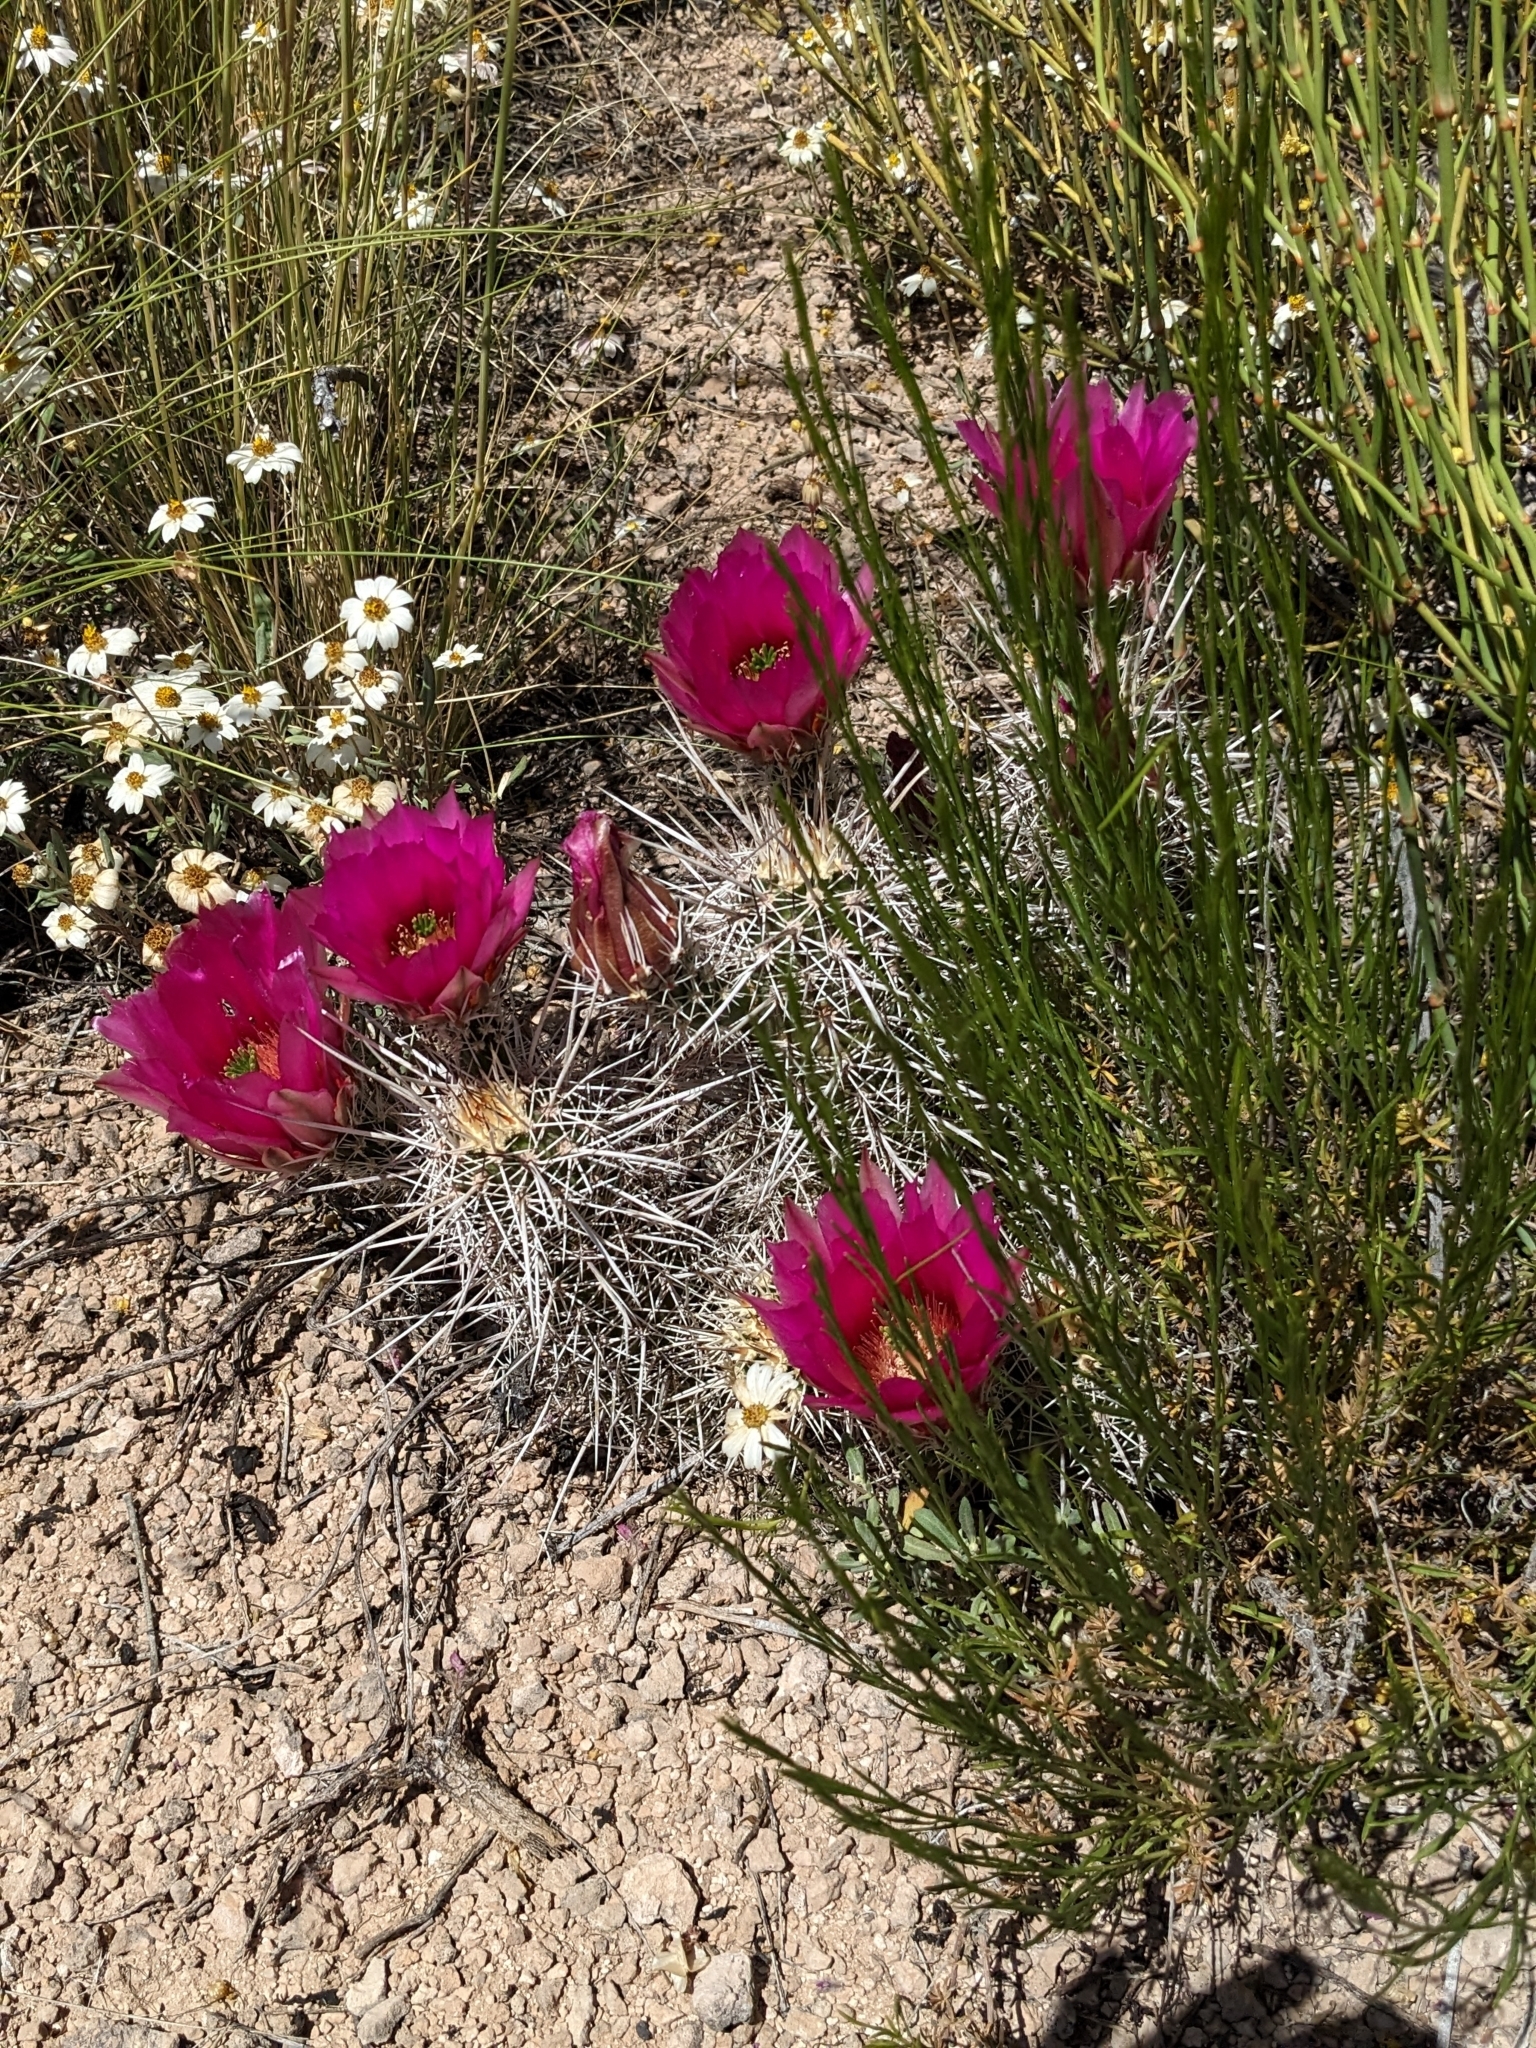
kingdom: Plantae
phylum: Tracheophyta
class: Magnoliopsida
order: Caryophyllales
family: Cactaceae
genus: Echinocereus
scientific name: Echinocereus fasciculatus
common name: Bundle hedgehog
